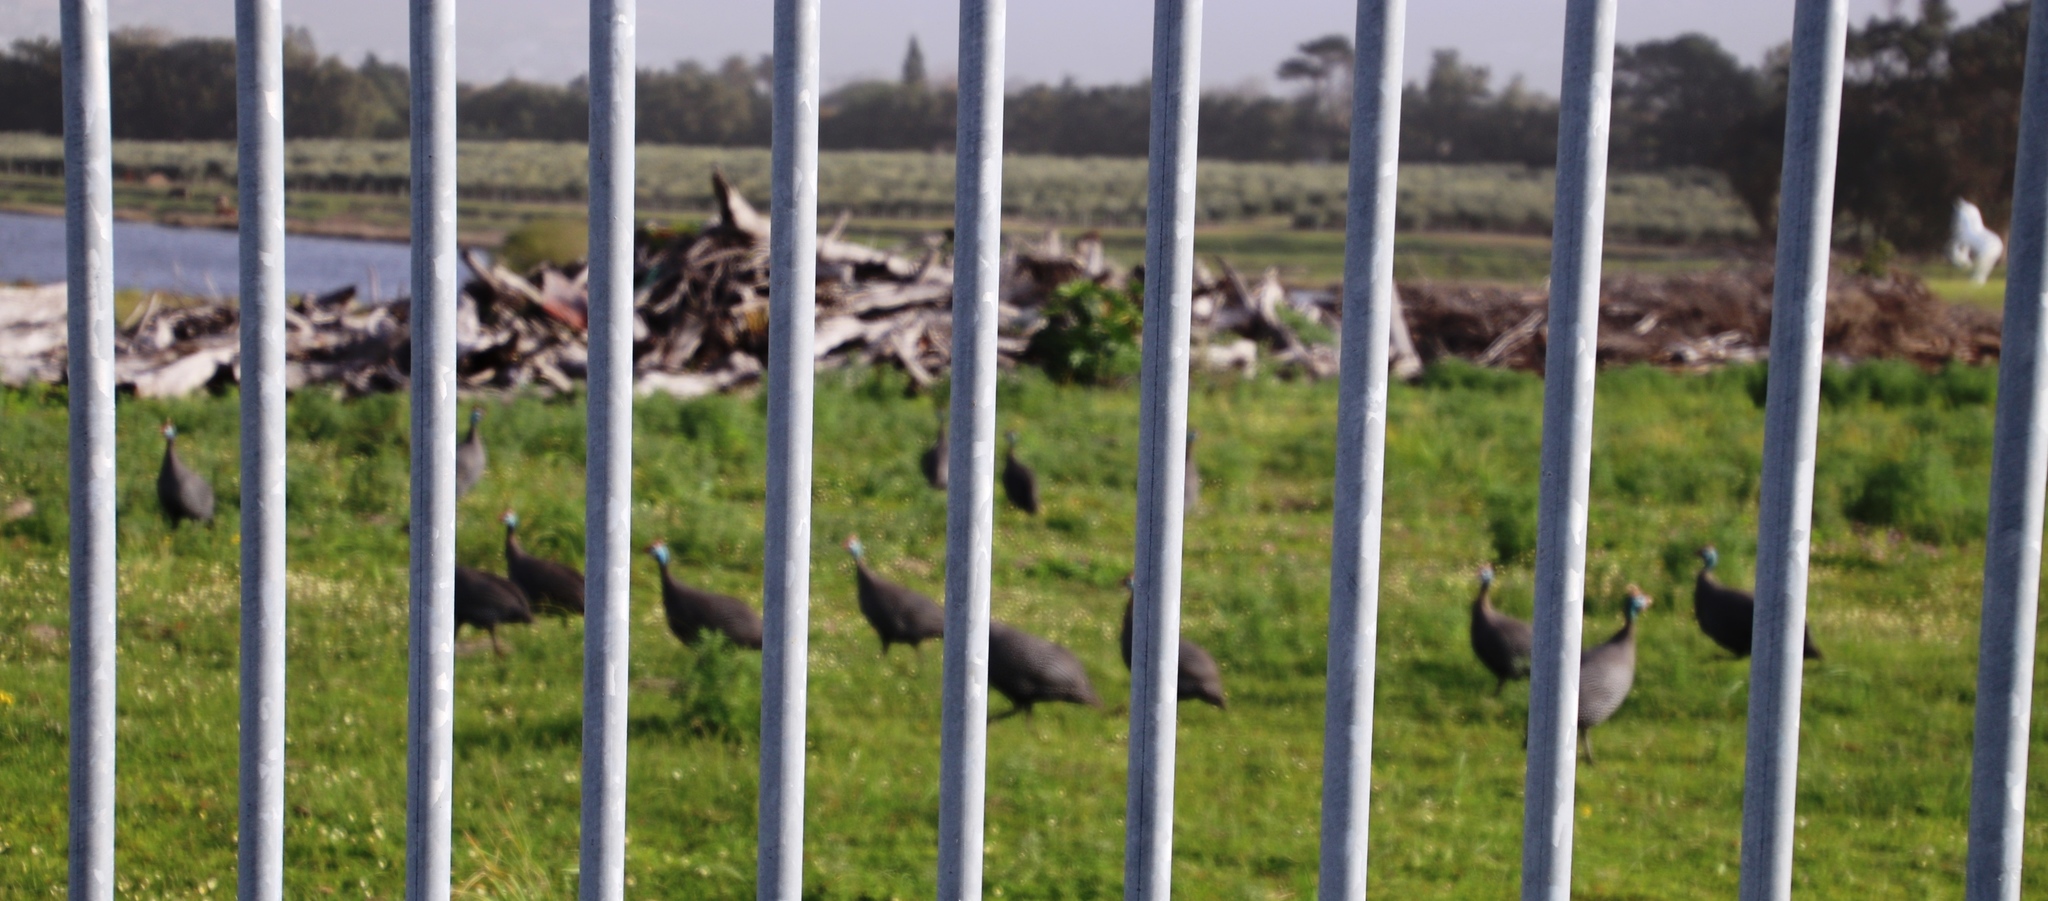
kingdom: Animalia
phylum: Chordata
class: Aves
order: Galliformes
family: Numididae
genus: Numida
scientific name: Numida meleagris
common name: Helmeted guineafowl
